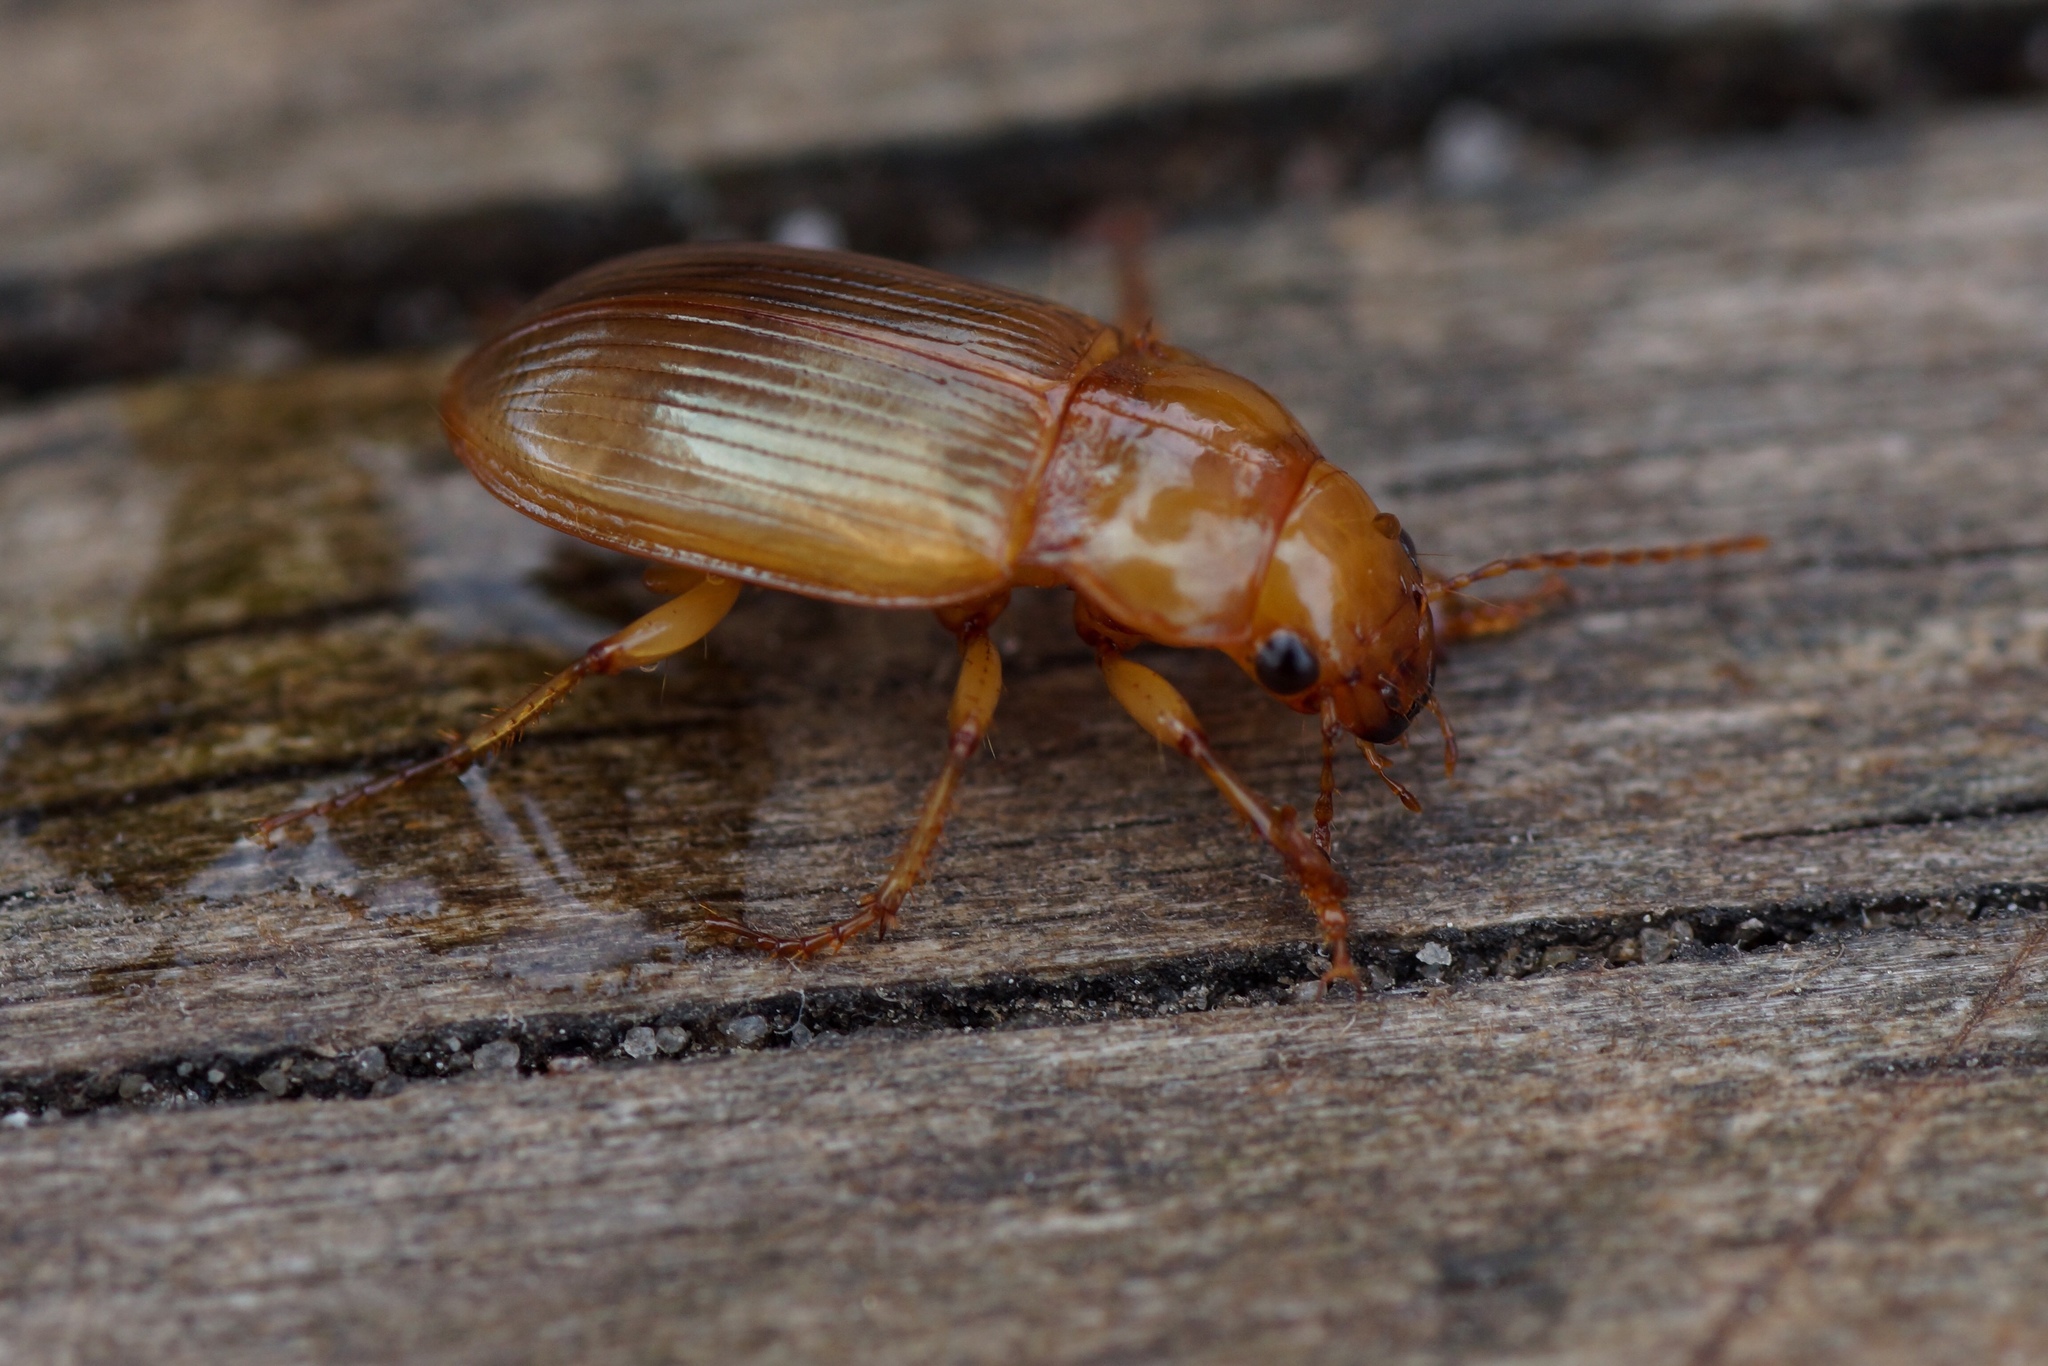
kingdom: Animalia
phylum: Arthropoda
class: Insecta
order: Coleoptera
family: Carabidae
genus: Amara
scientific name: Amara fulva
